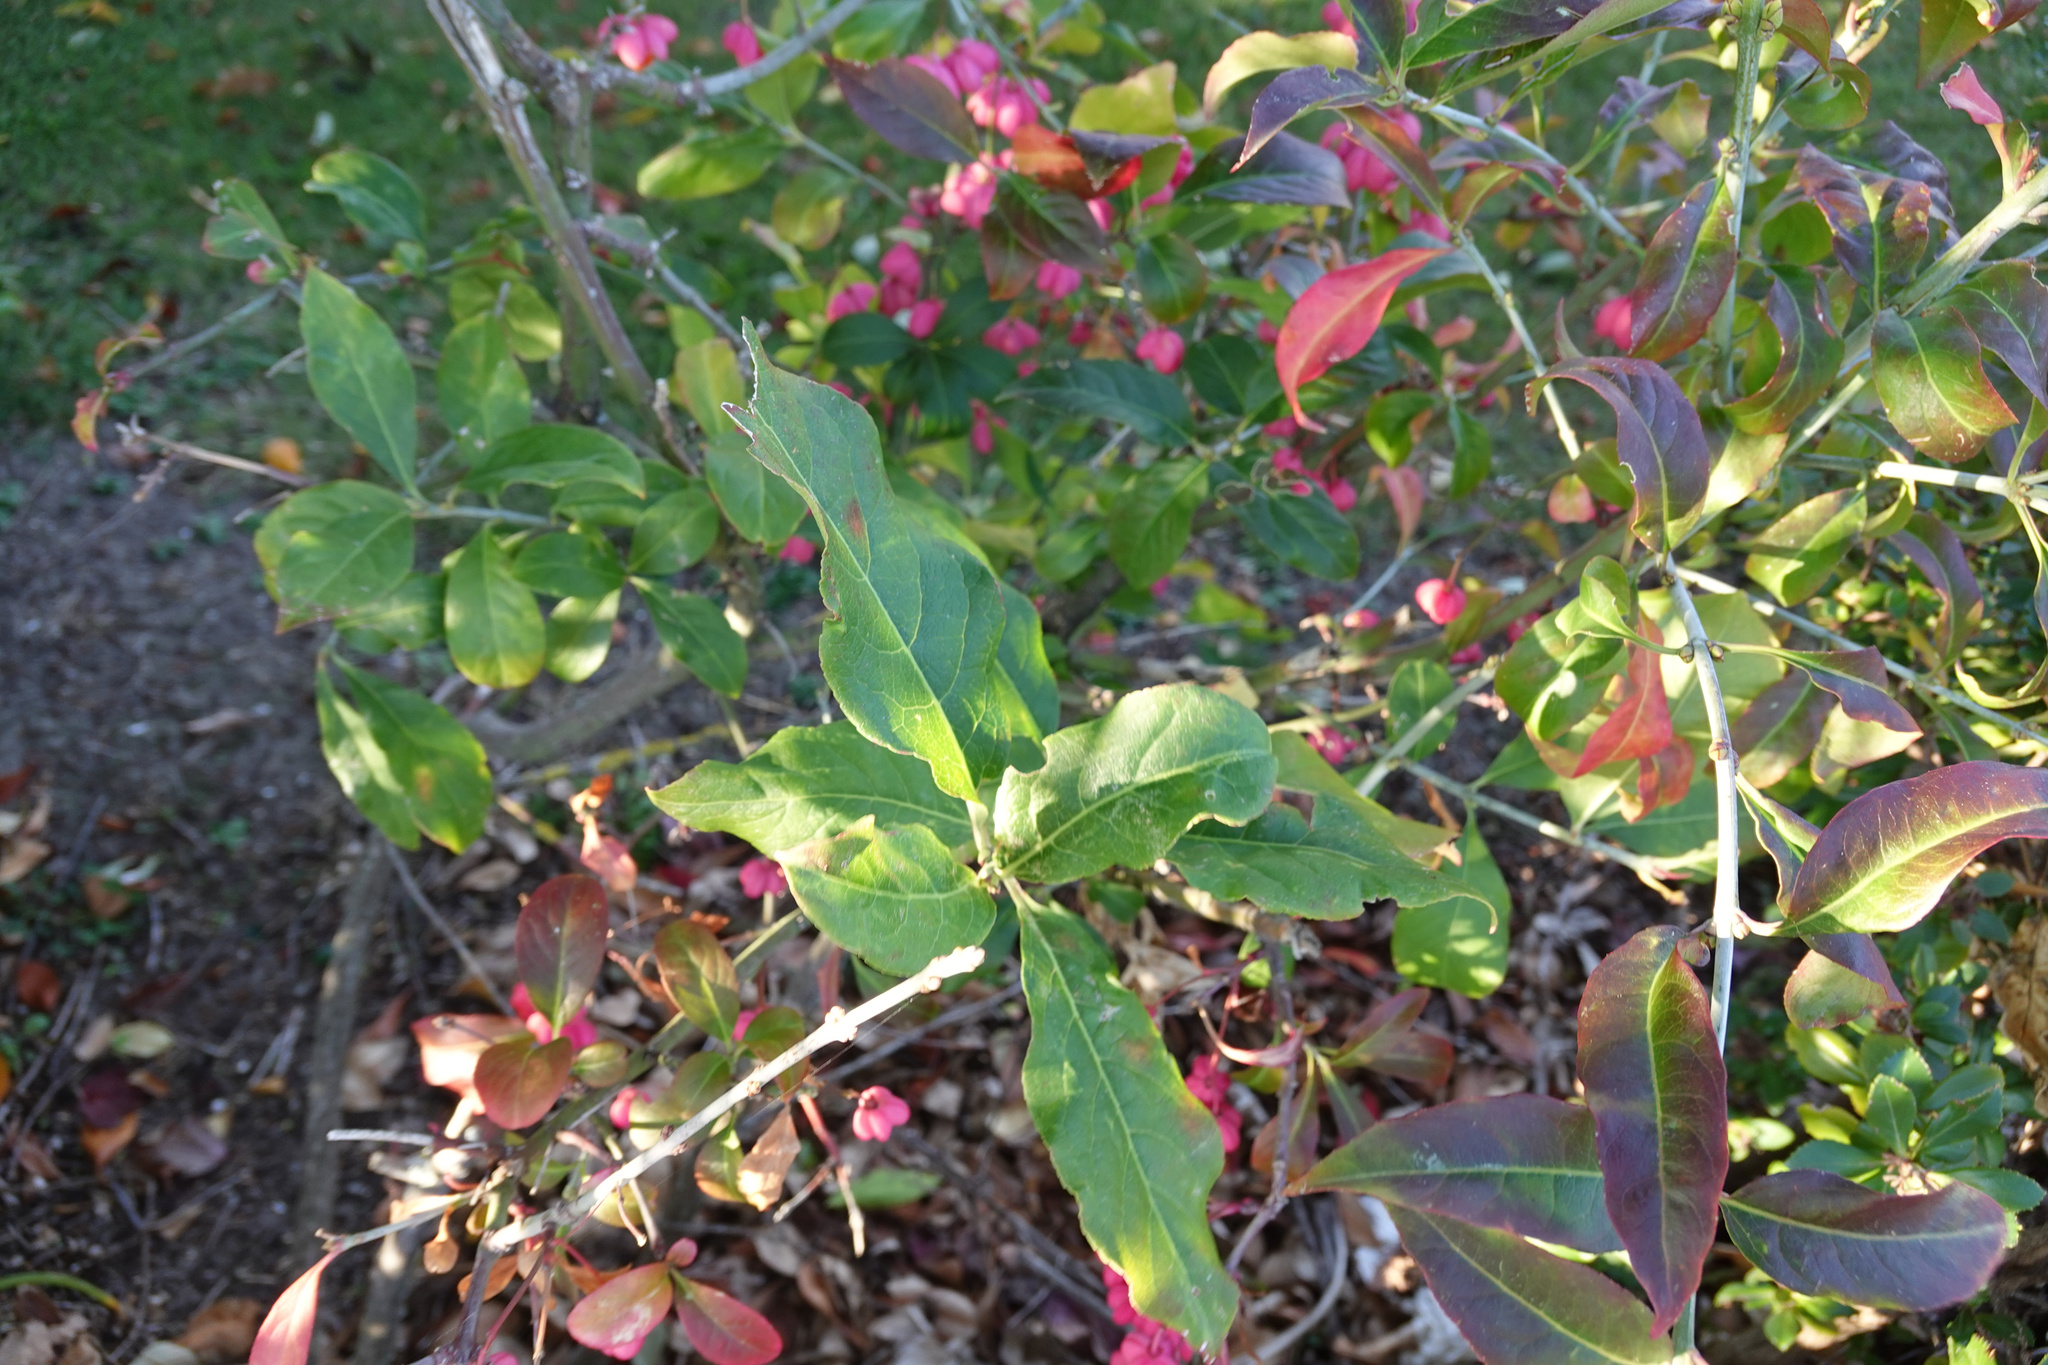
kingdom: Plantae
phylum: Tracheophyta
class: Magnoliopsida
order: Celastrales
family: Celastraceae
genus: Euonymus
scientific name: Euonymus europaeus
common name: Spindle
